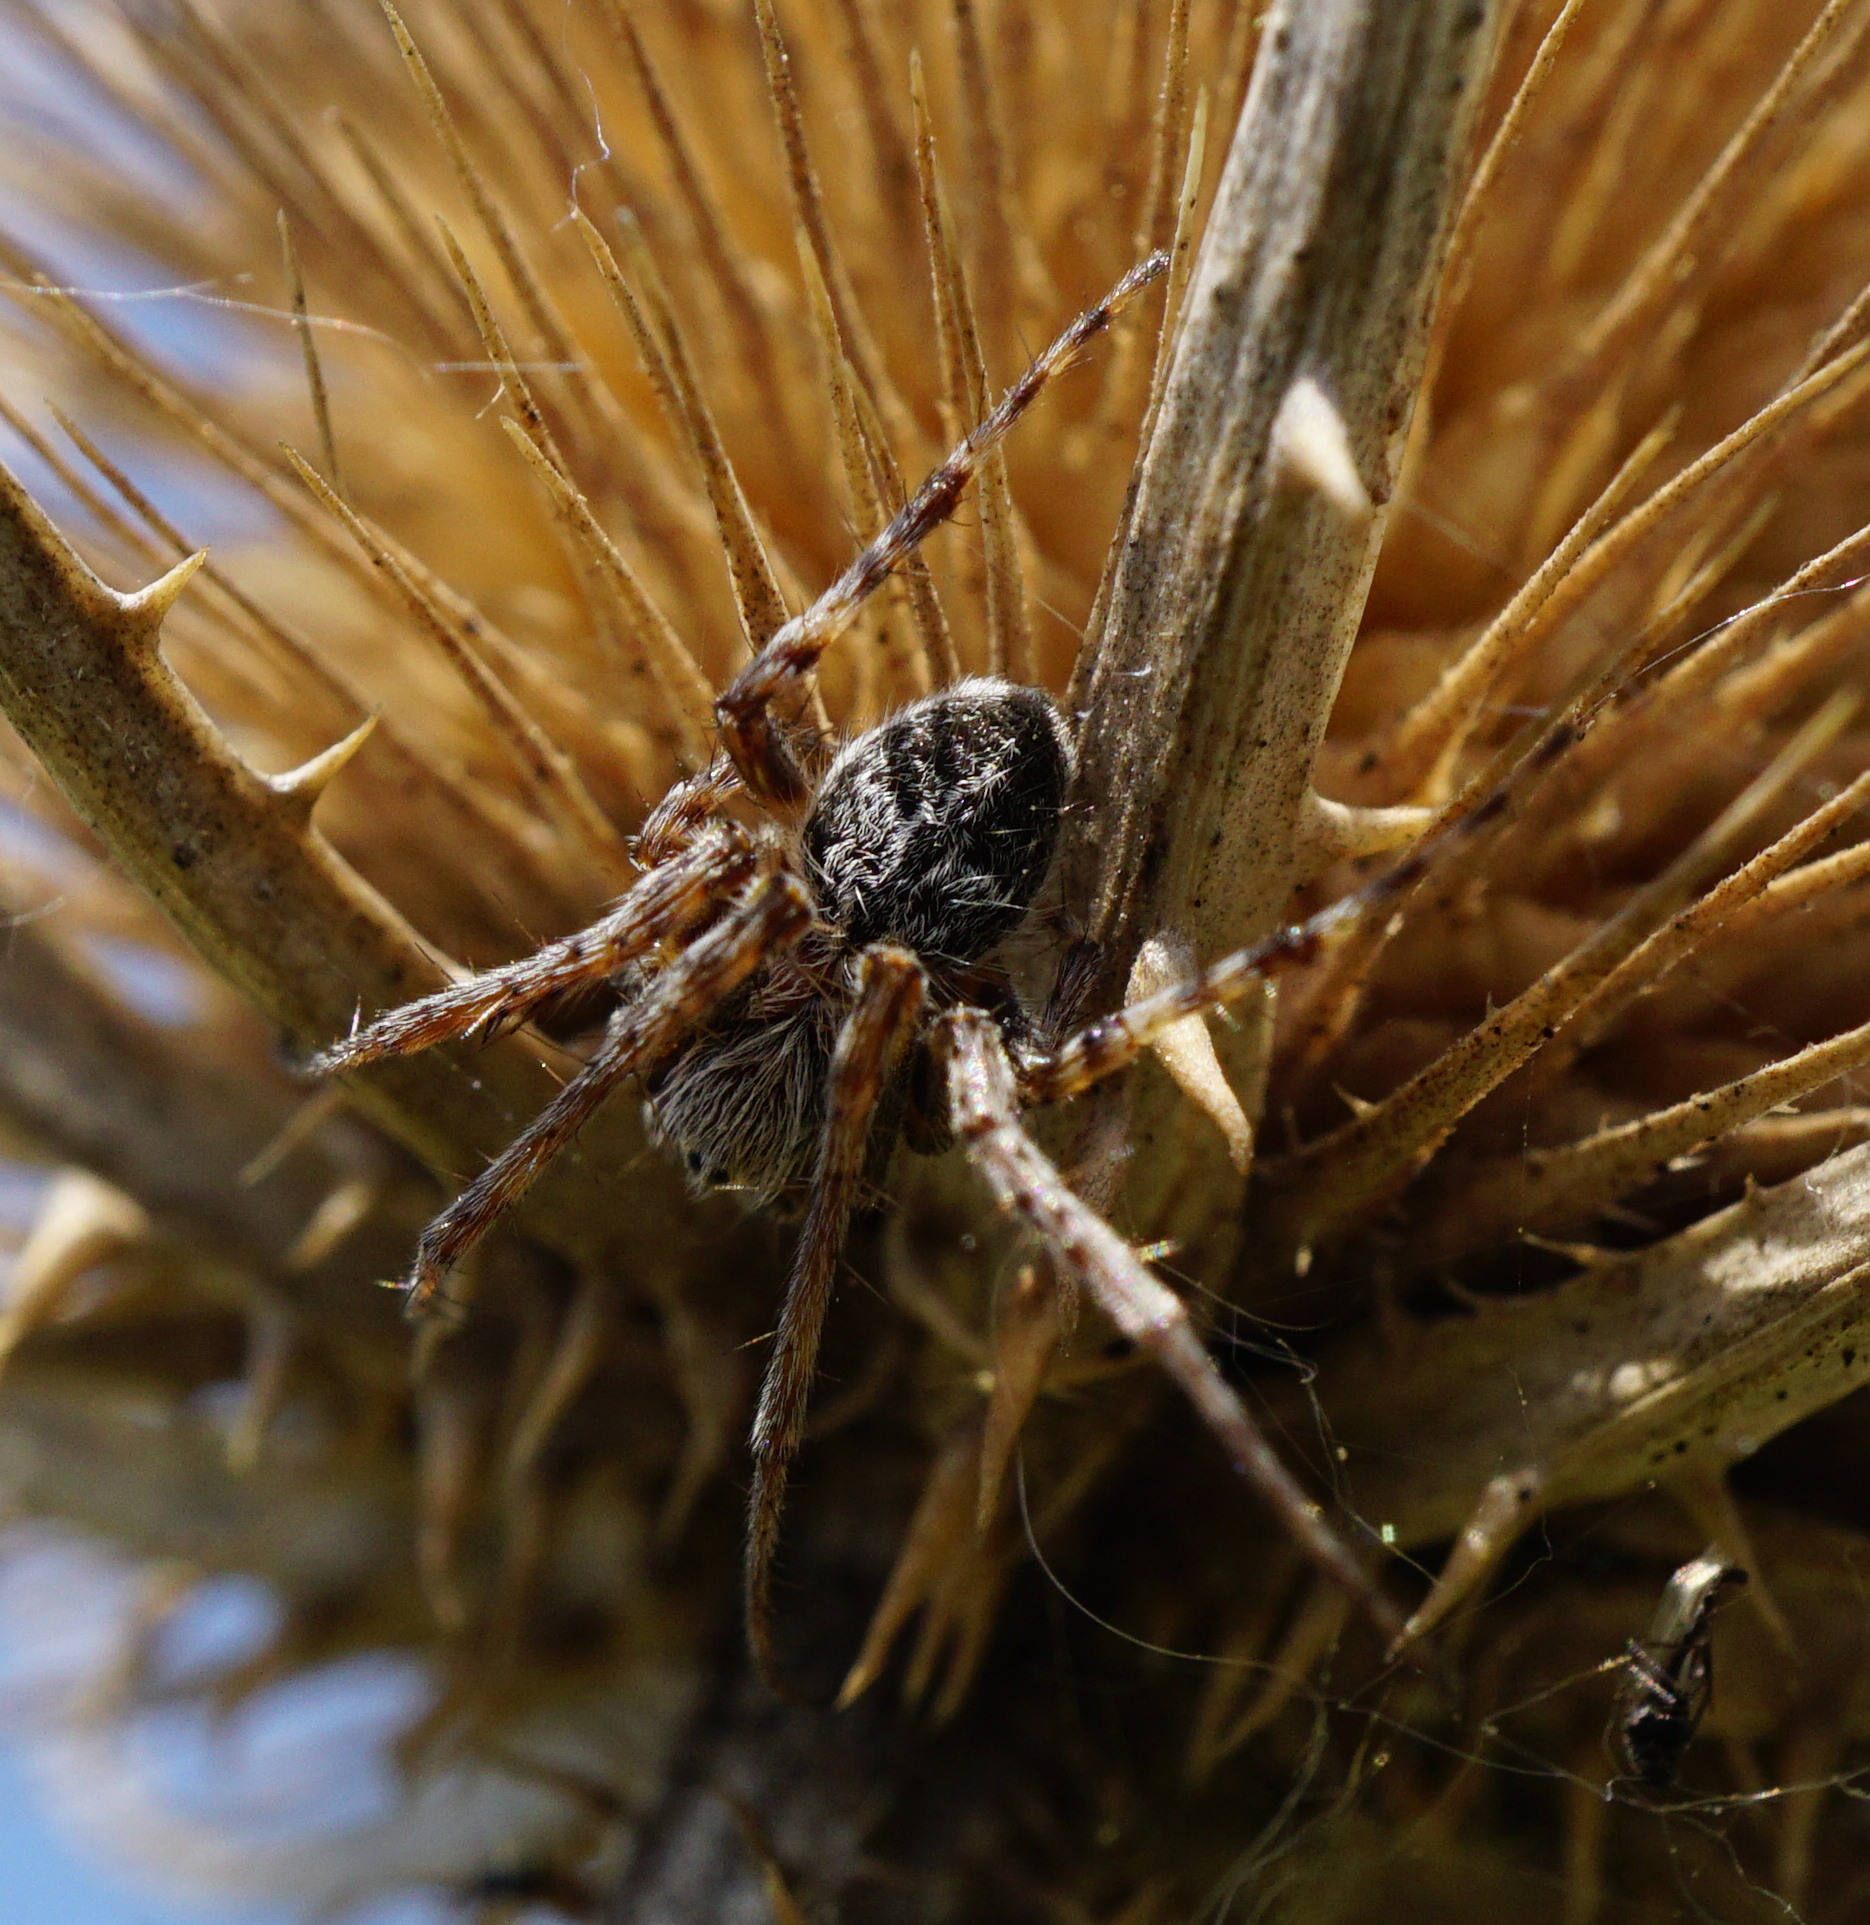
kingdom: Animalia
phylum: Arthropoda
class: Arachnida
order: Araneae
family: Araneidae
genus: Agalenatea
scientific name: Agalenatea redii
